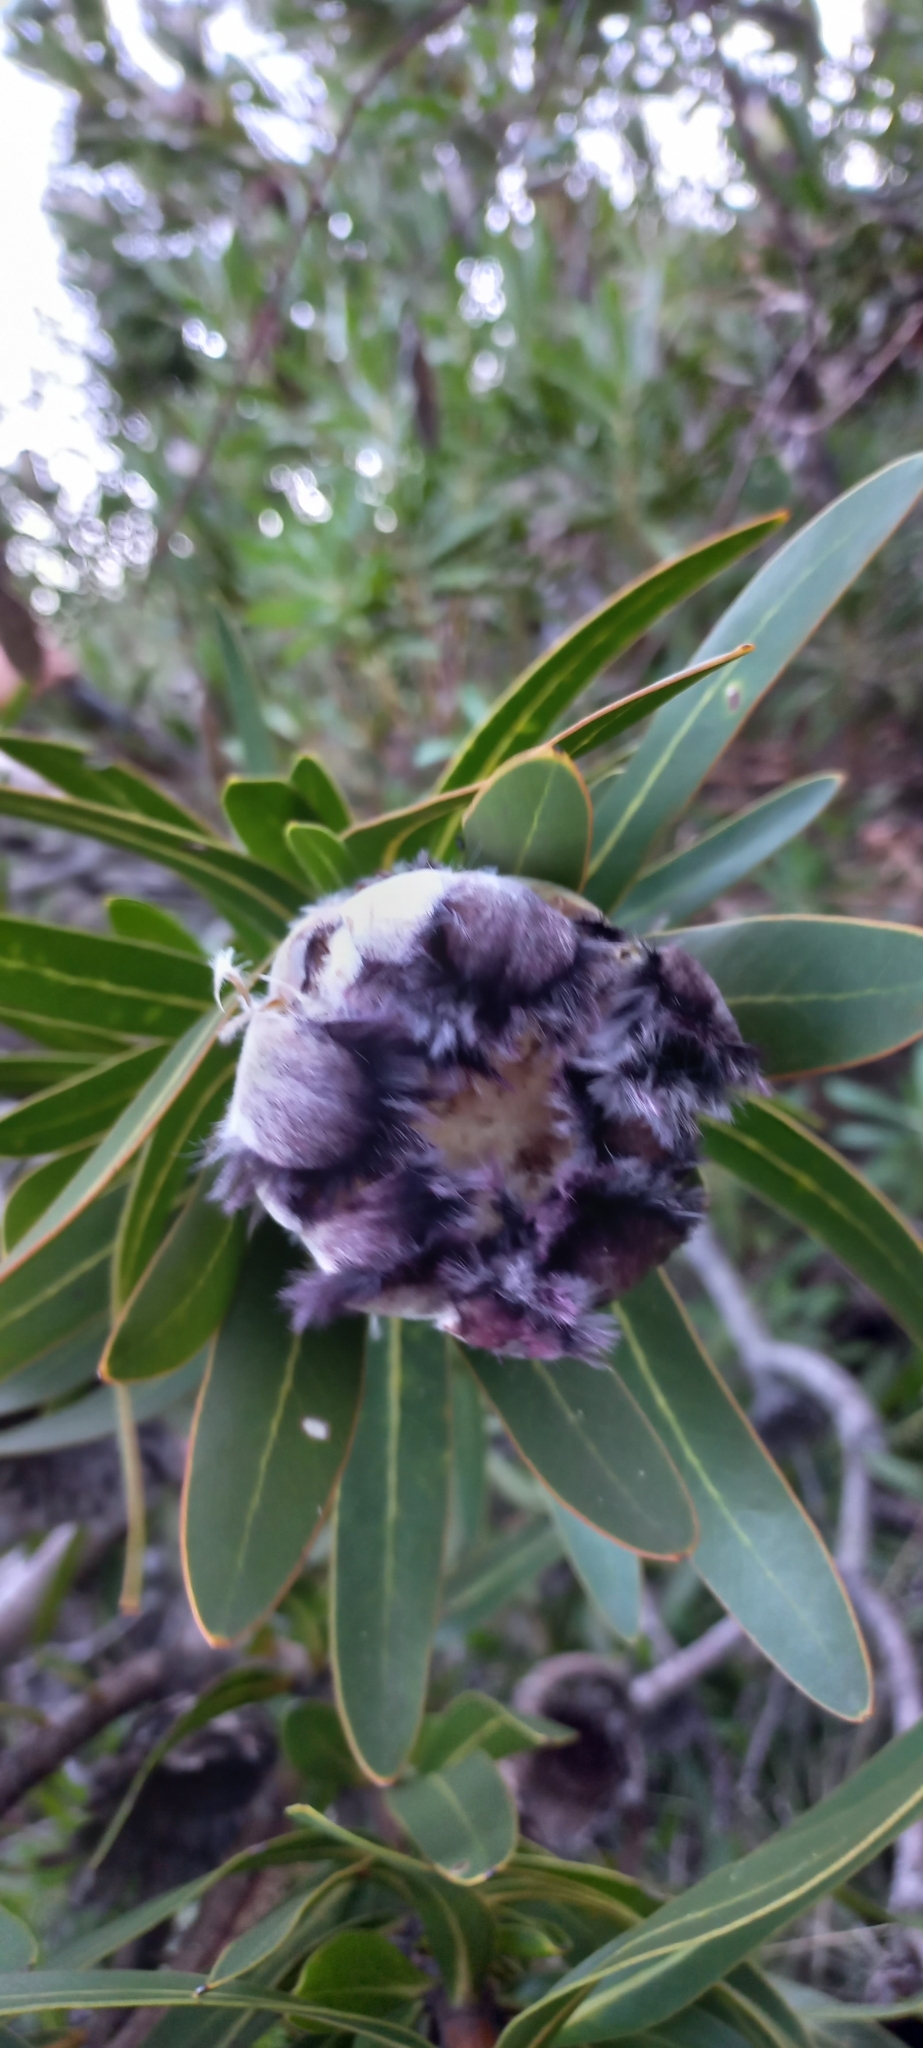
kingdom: Plantae
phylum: Tracheophyta
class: Magnoliopsida
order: Proteales
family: Proteaceae
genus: Protea
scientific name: Protea
